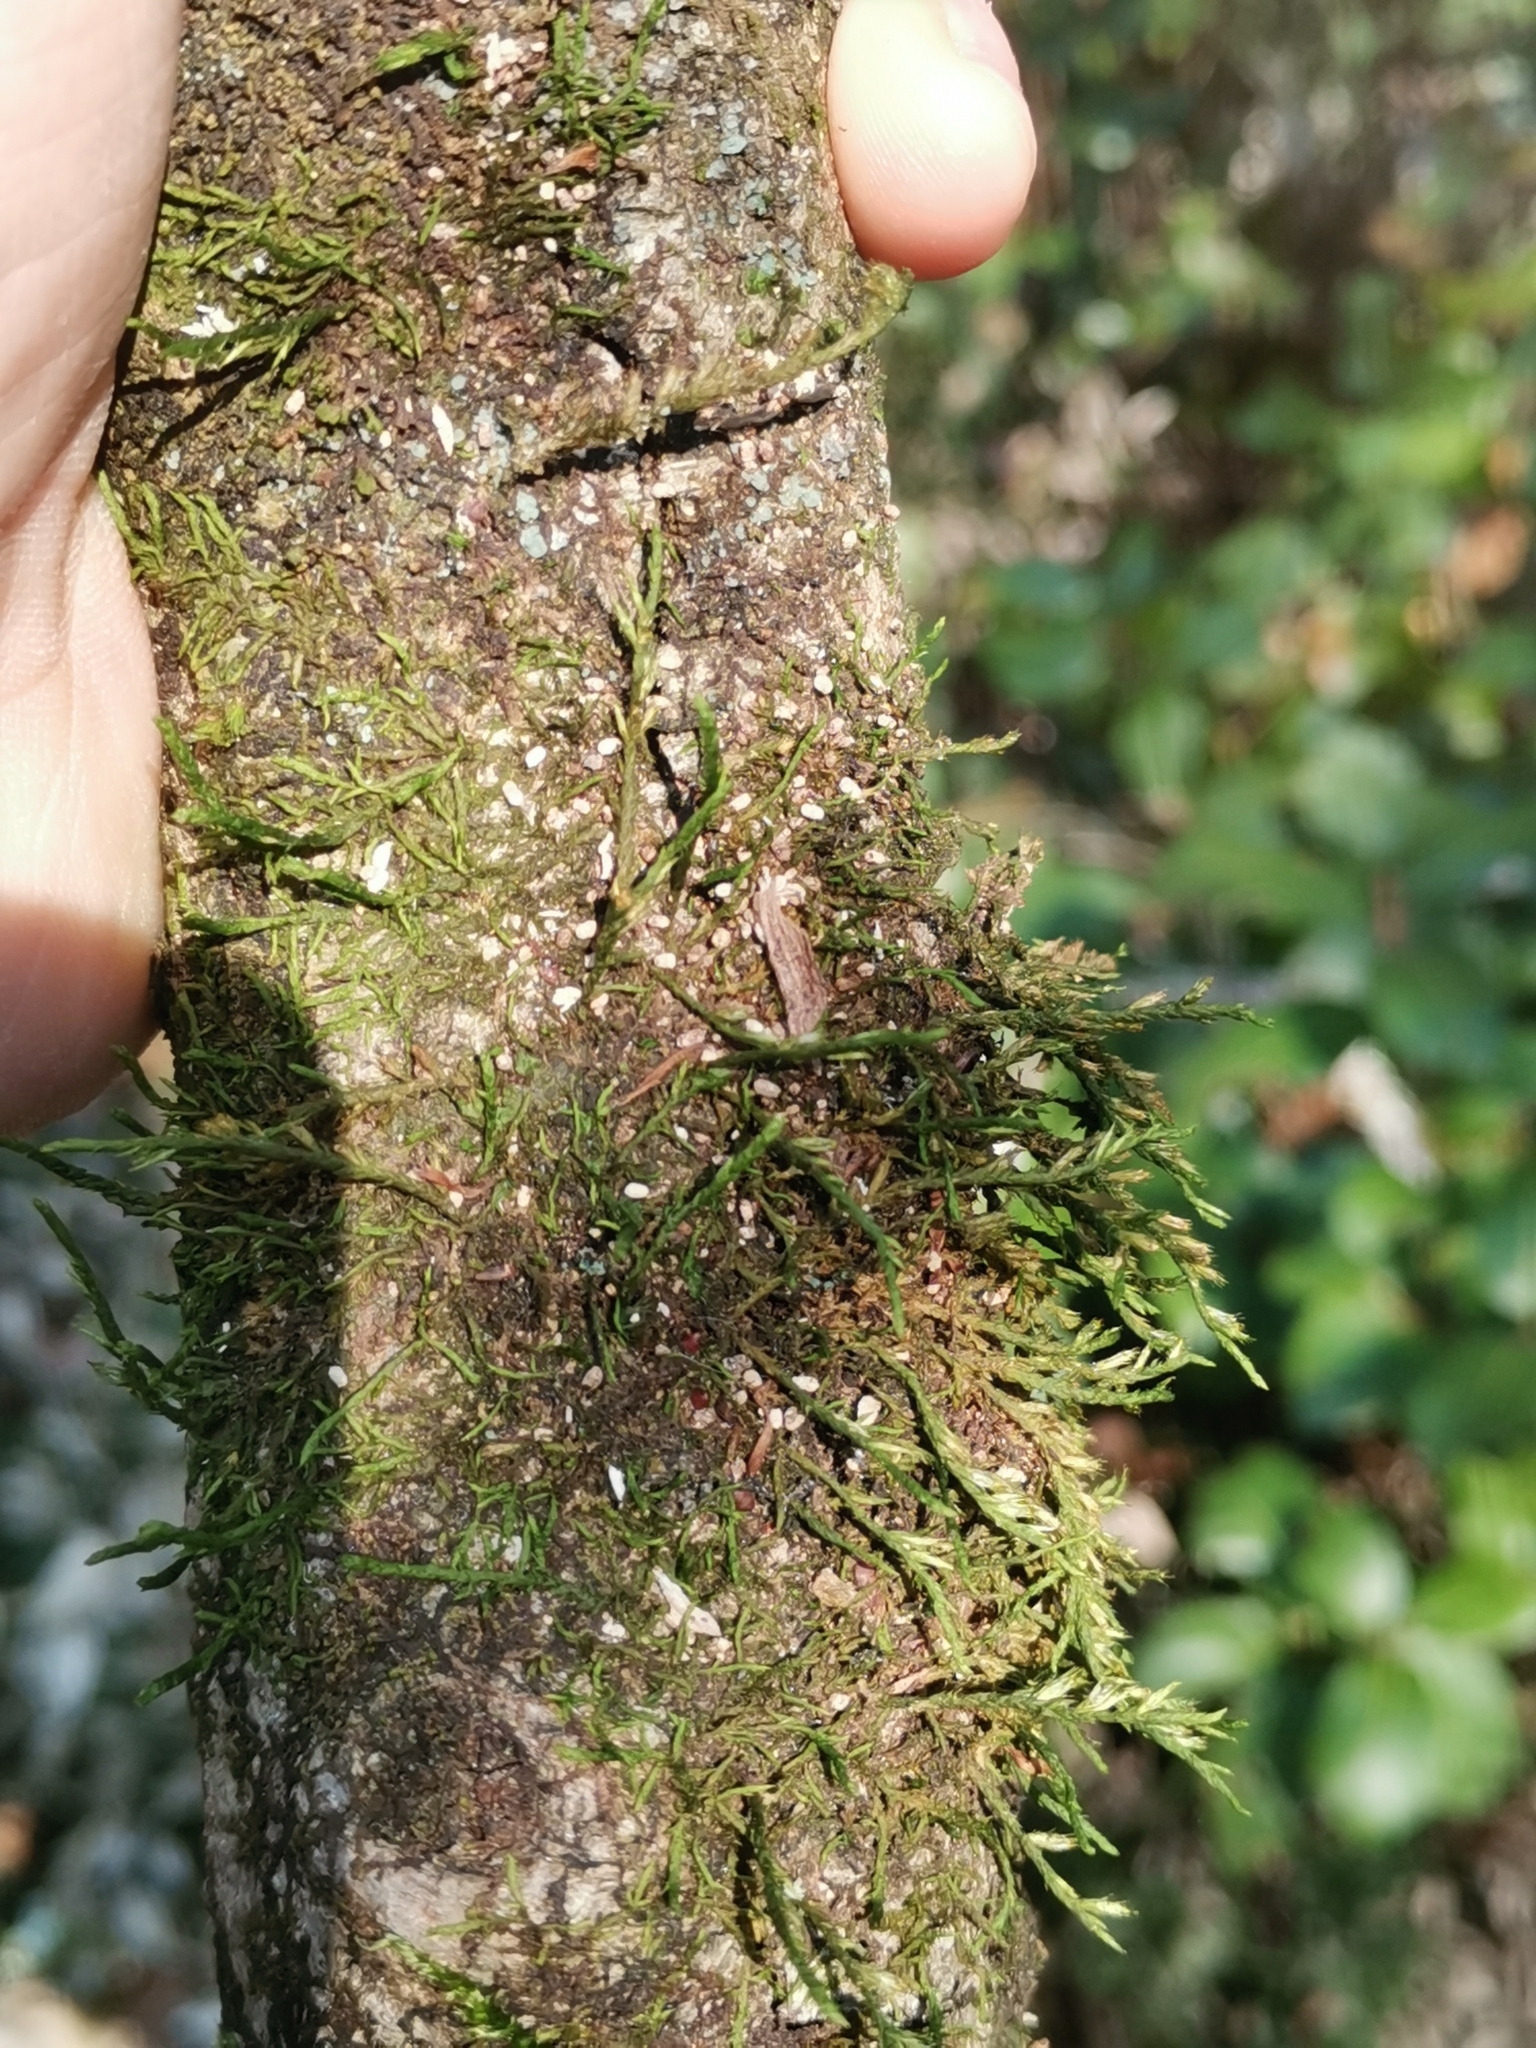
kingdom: Plantae
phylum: Bryophyta
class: Bryopsida
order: Hypnales
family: Cryphaeaceae
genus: Cryphaea
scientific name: Cryphaea heteromalla
